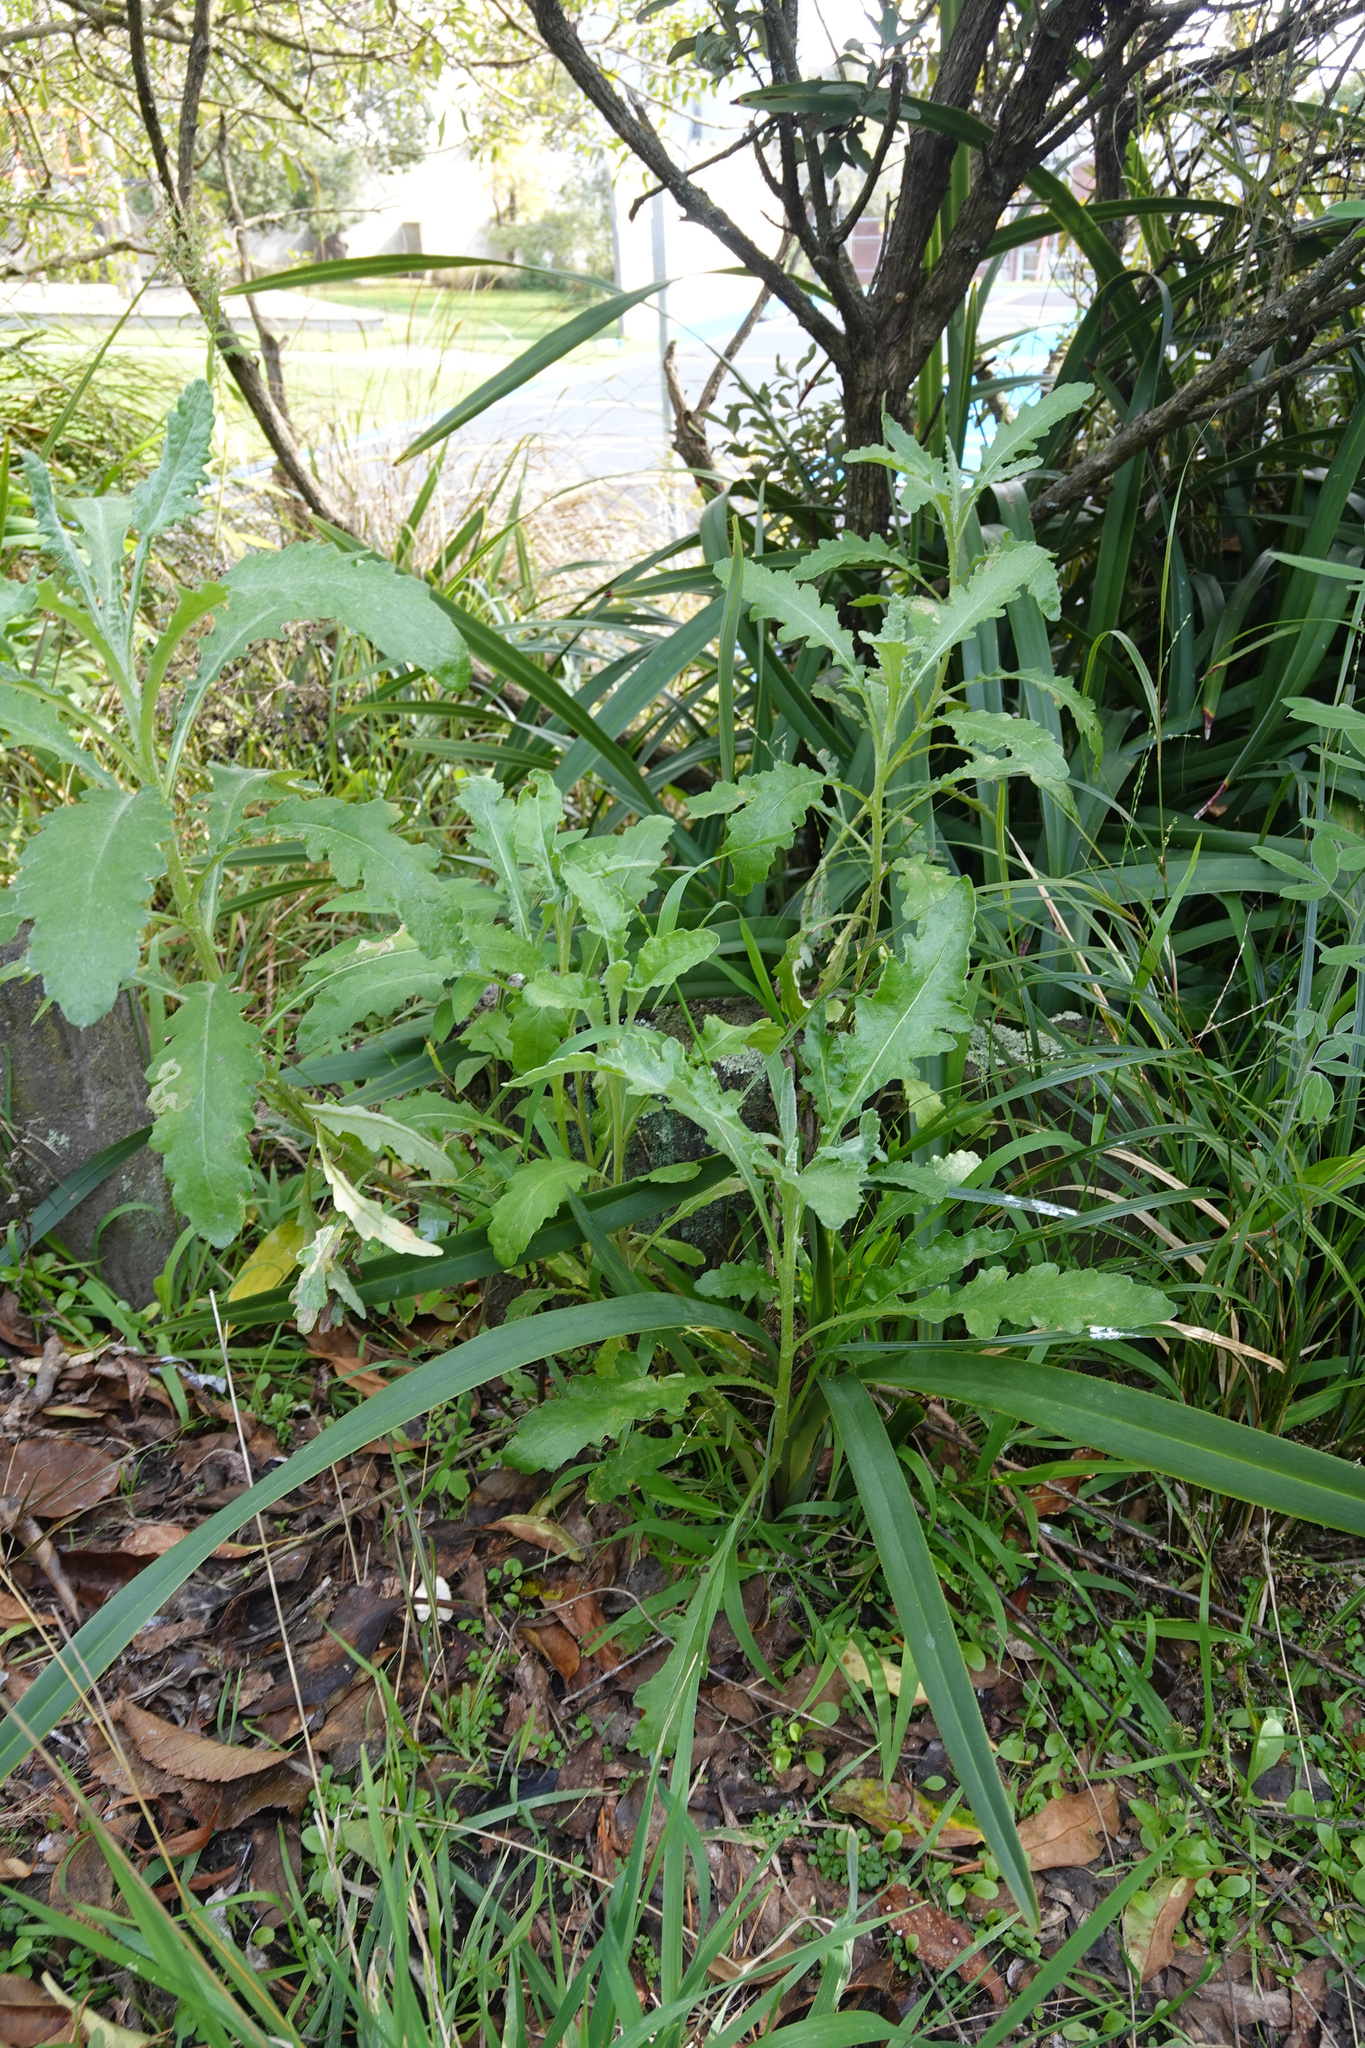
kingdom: Plantae
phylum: Tracheophyta
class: Magnoliopsida
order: Asterales
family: Asteraceae
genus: Senecio
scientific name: Senecio glomeratus
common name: Cutleaf burnweed
